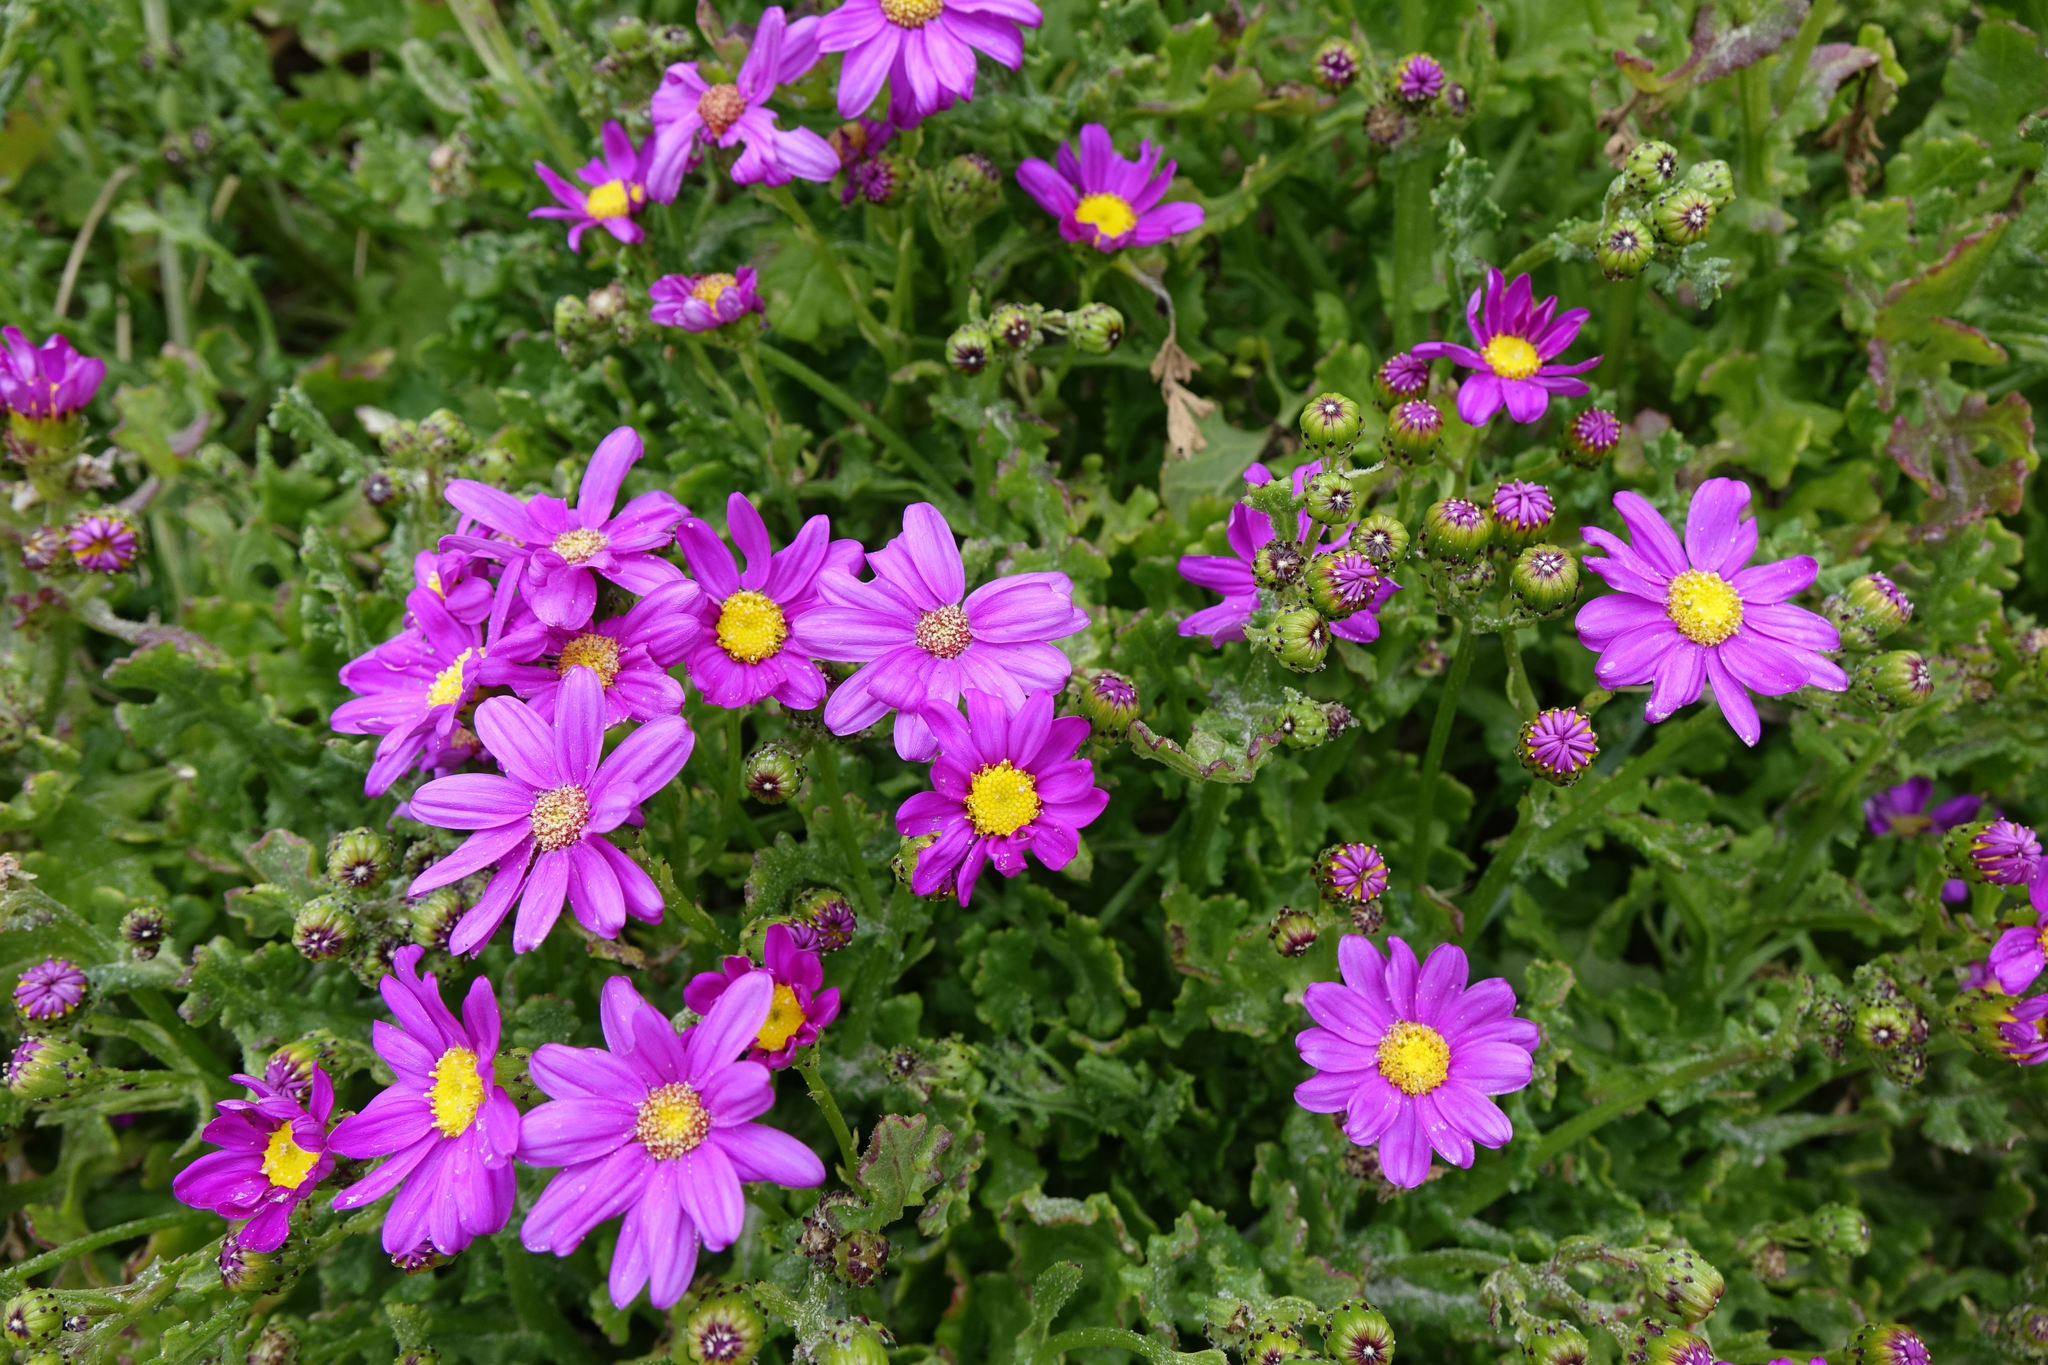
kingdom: Plantae
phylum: Tracheophyta
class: Magnoliopsida
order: Asterales
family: Asteraceae
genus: Senecio
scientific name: Senecio elegans
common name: Purple groundsel
